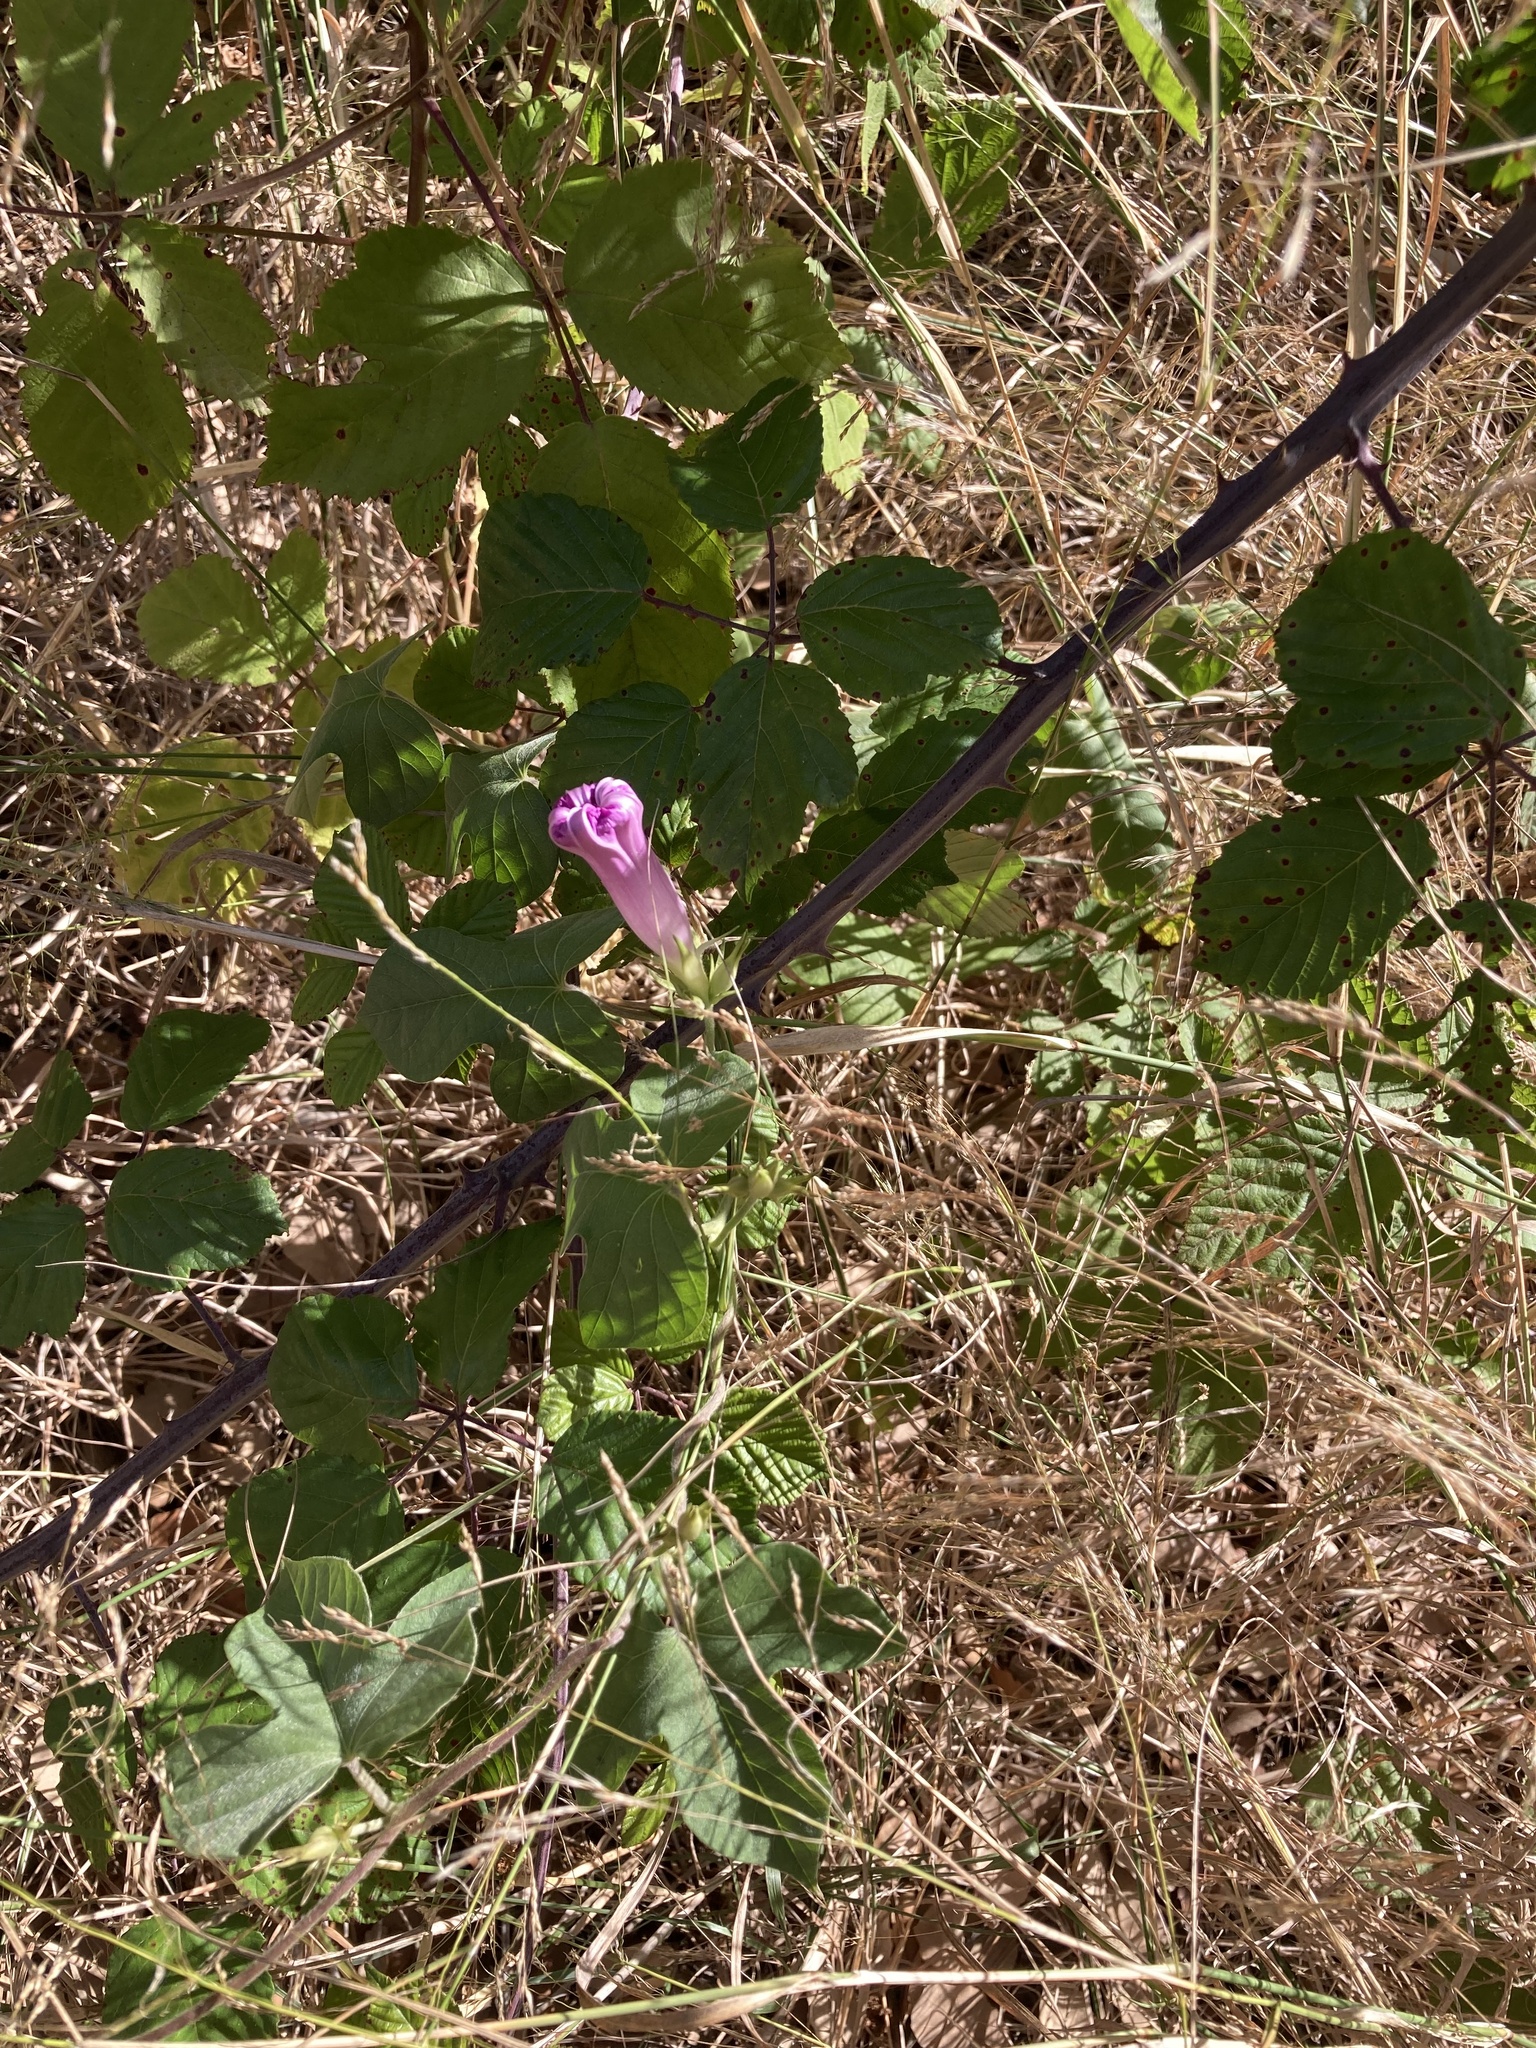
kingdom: Plantae
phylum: Tracheophyta
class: Magnoliopsida
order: Solanales
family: Convolvulaceae
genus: Ipomoea
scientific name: Ipomoea indica
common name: Blue dawnflower
